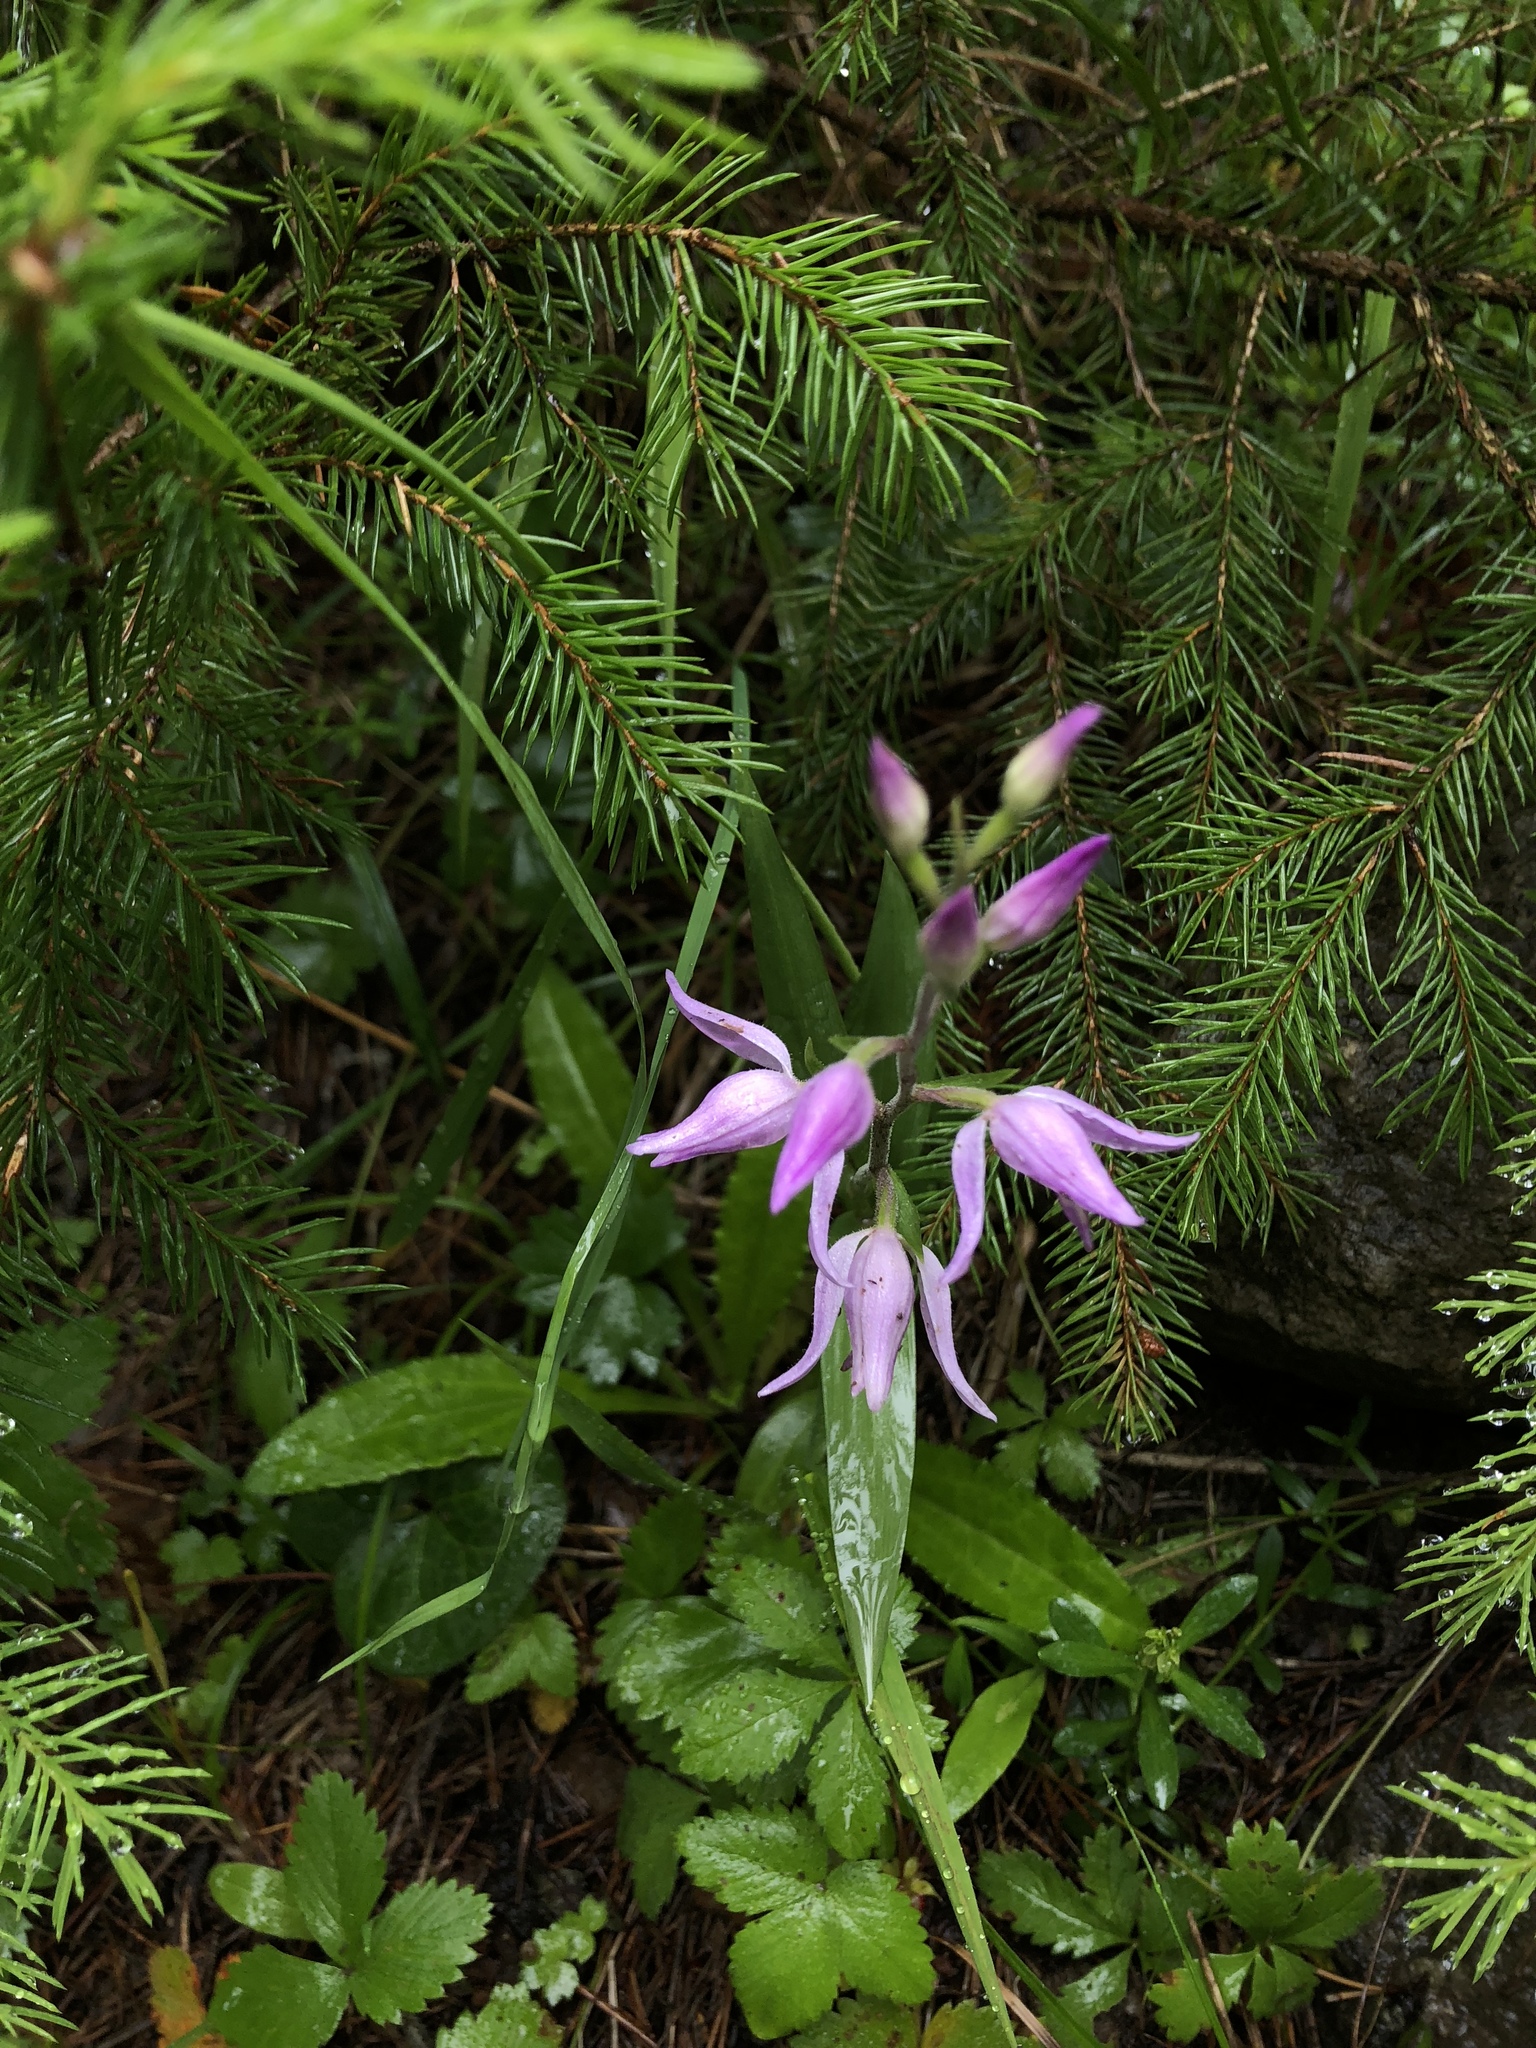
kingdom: Plantae
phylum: Tracheophyta
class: Liliopsida
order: Asparagales
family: Orchidaceae
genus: Cephalanthera
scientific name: Cephalanthera rubra
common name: Red helleborine
